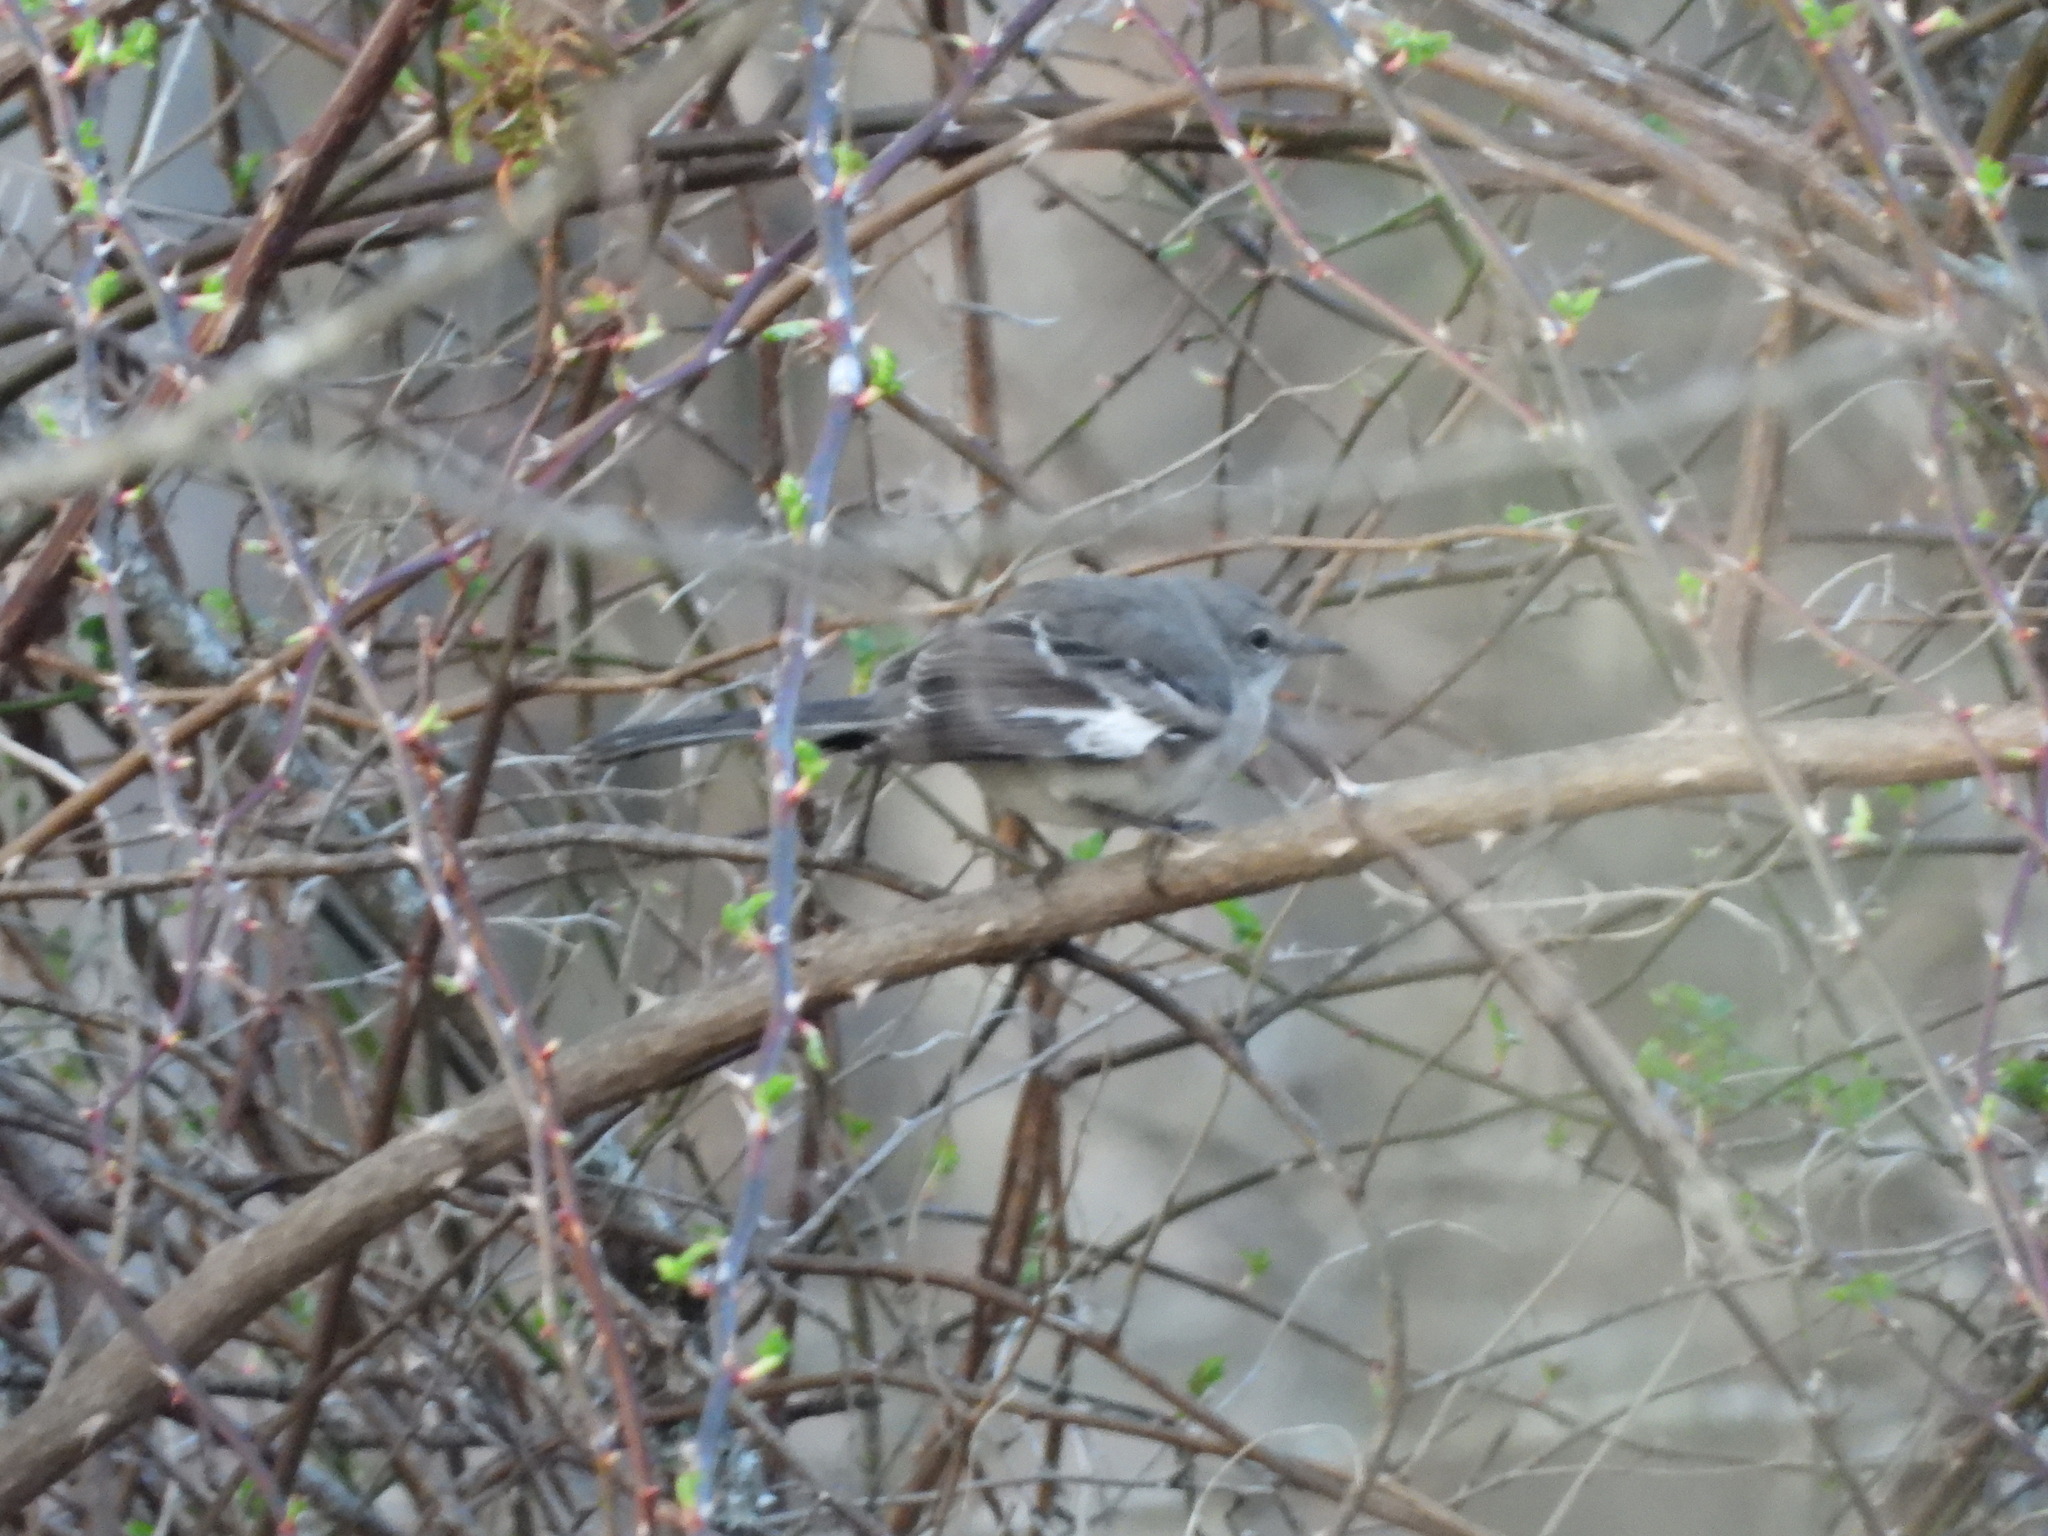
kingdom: Animalia
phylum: Chordata
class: Aves
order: Passeriformes
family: Mimidae
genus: Mimus
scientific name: Mimus polyglottos
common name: Northern mockingbird
